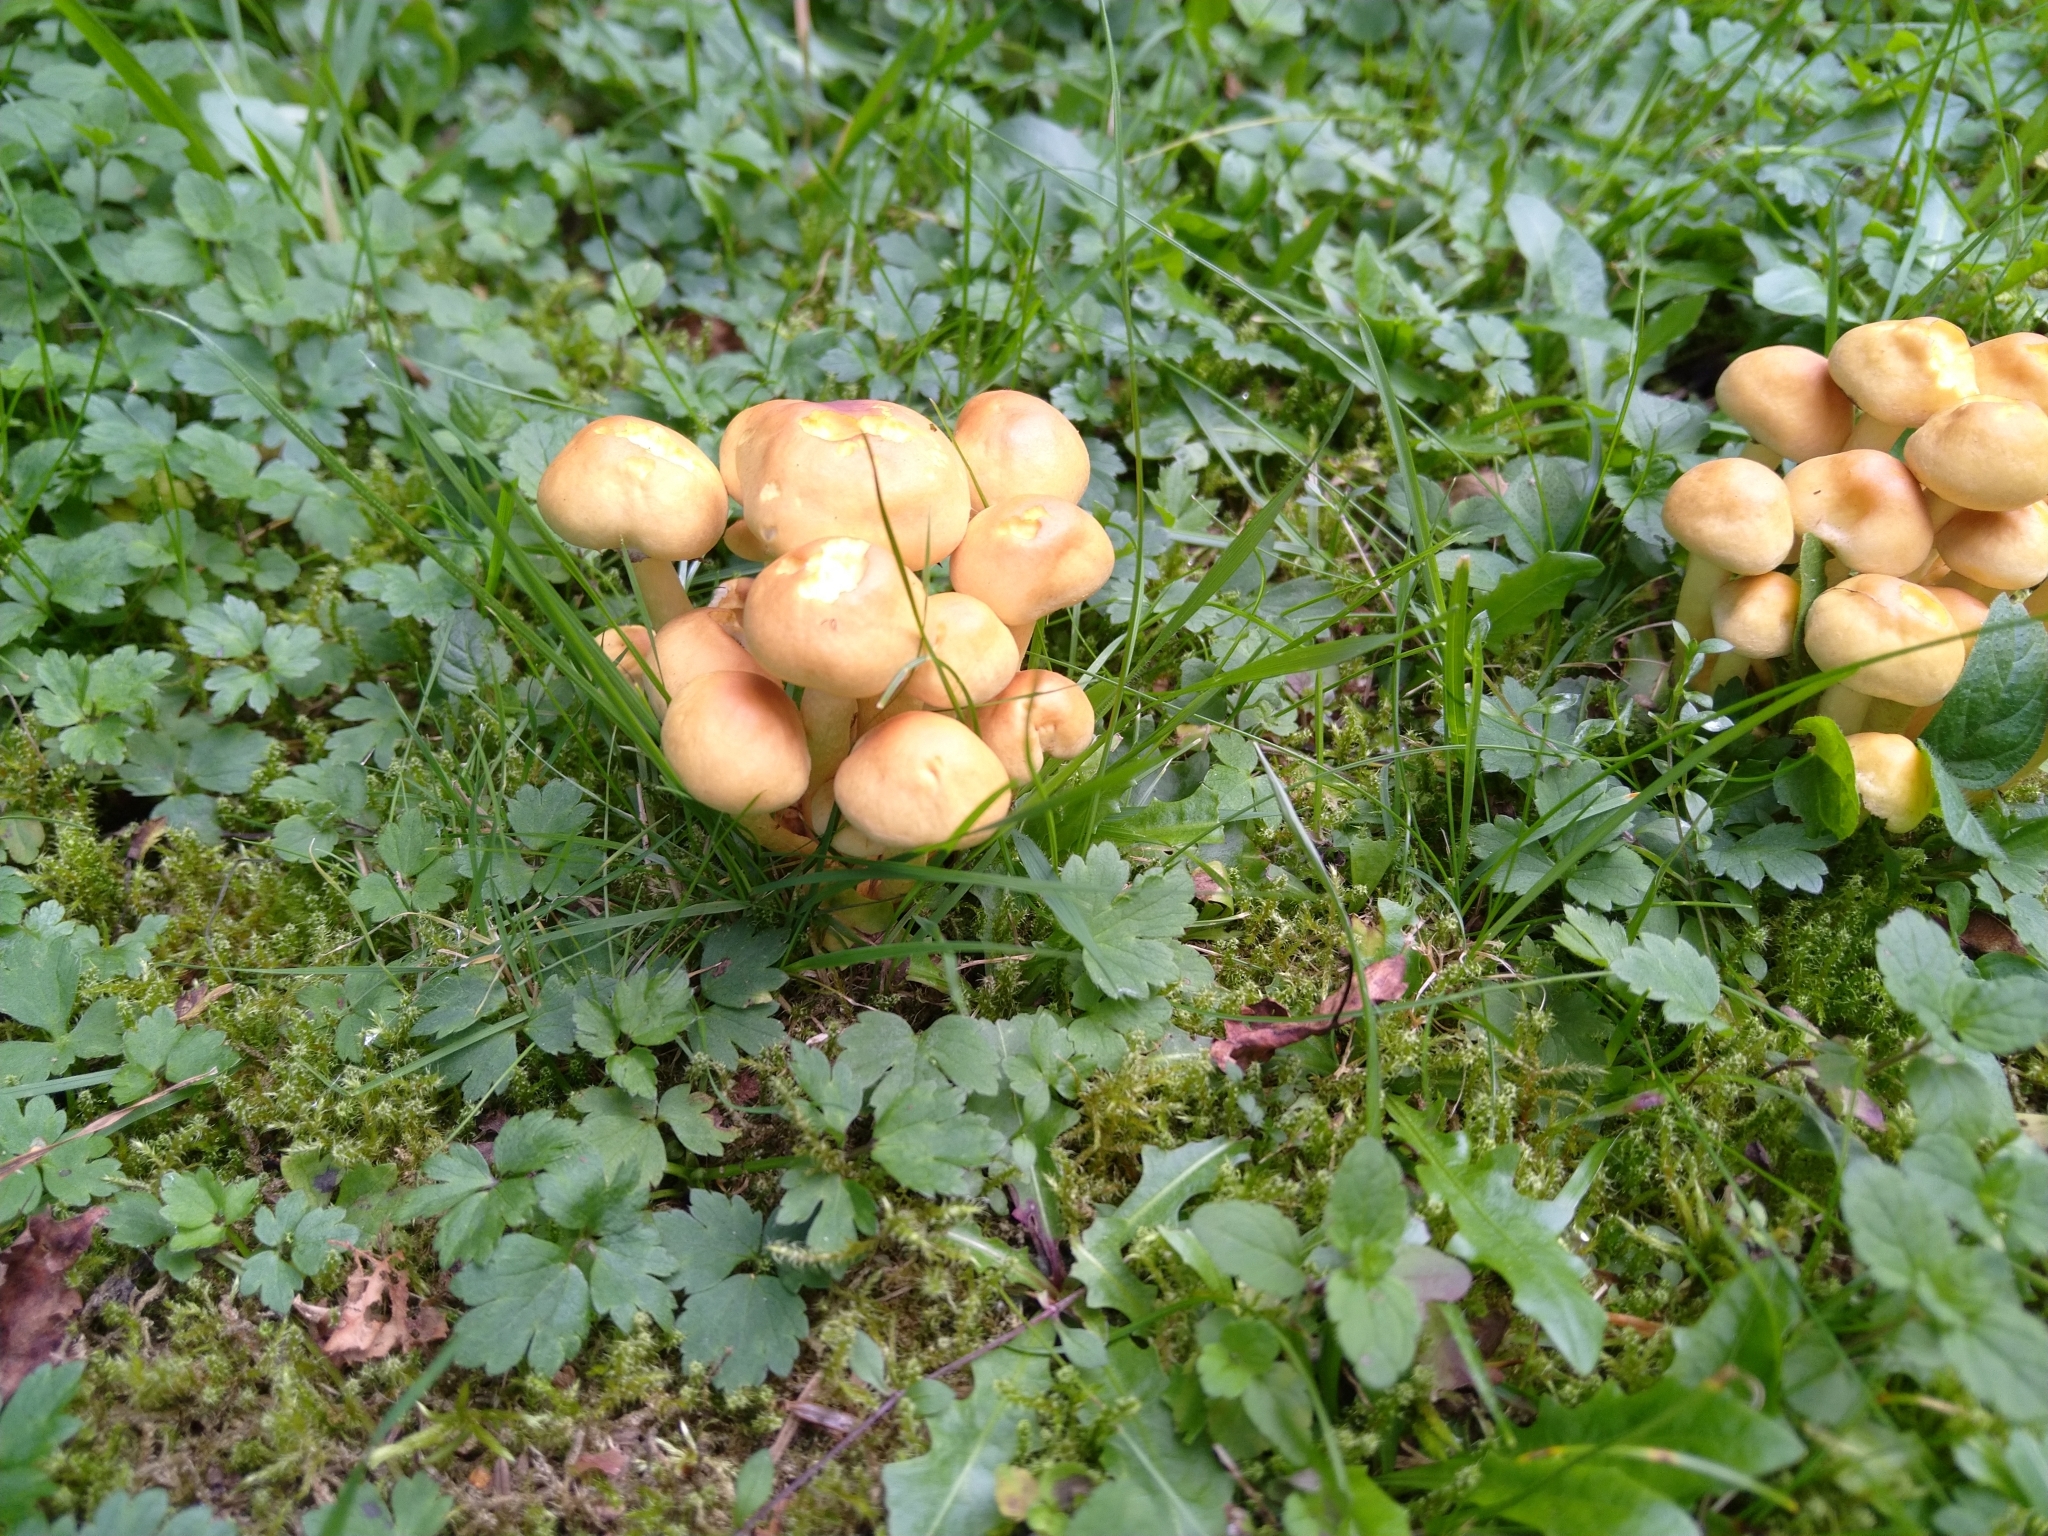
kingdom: Fungi
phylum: Basidiomycota
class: Agaricomycetes
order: Agaricales
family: Strophariaceae
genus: Hypholoma
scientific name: Hypholoma fasciculare
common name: Sulphur tuft
